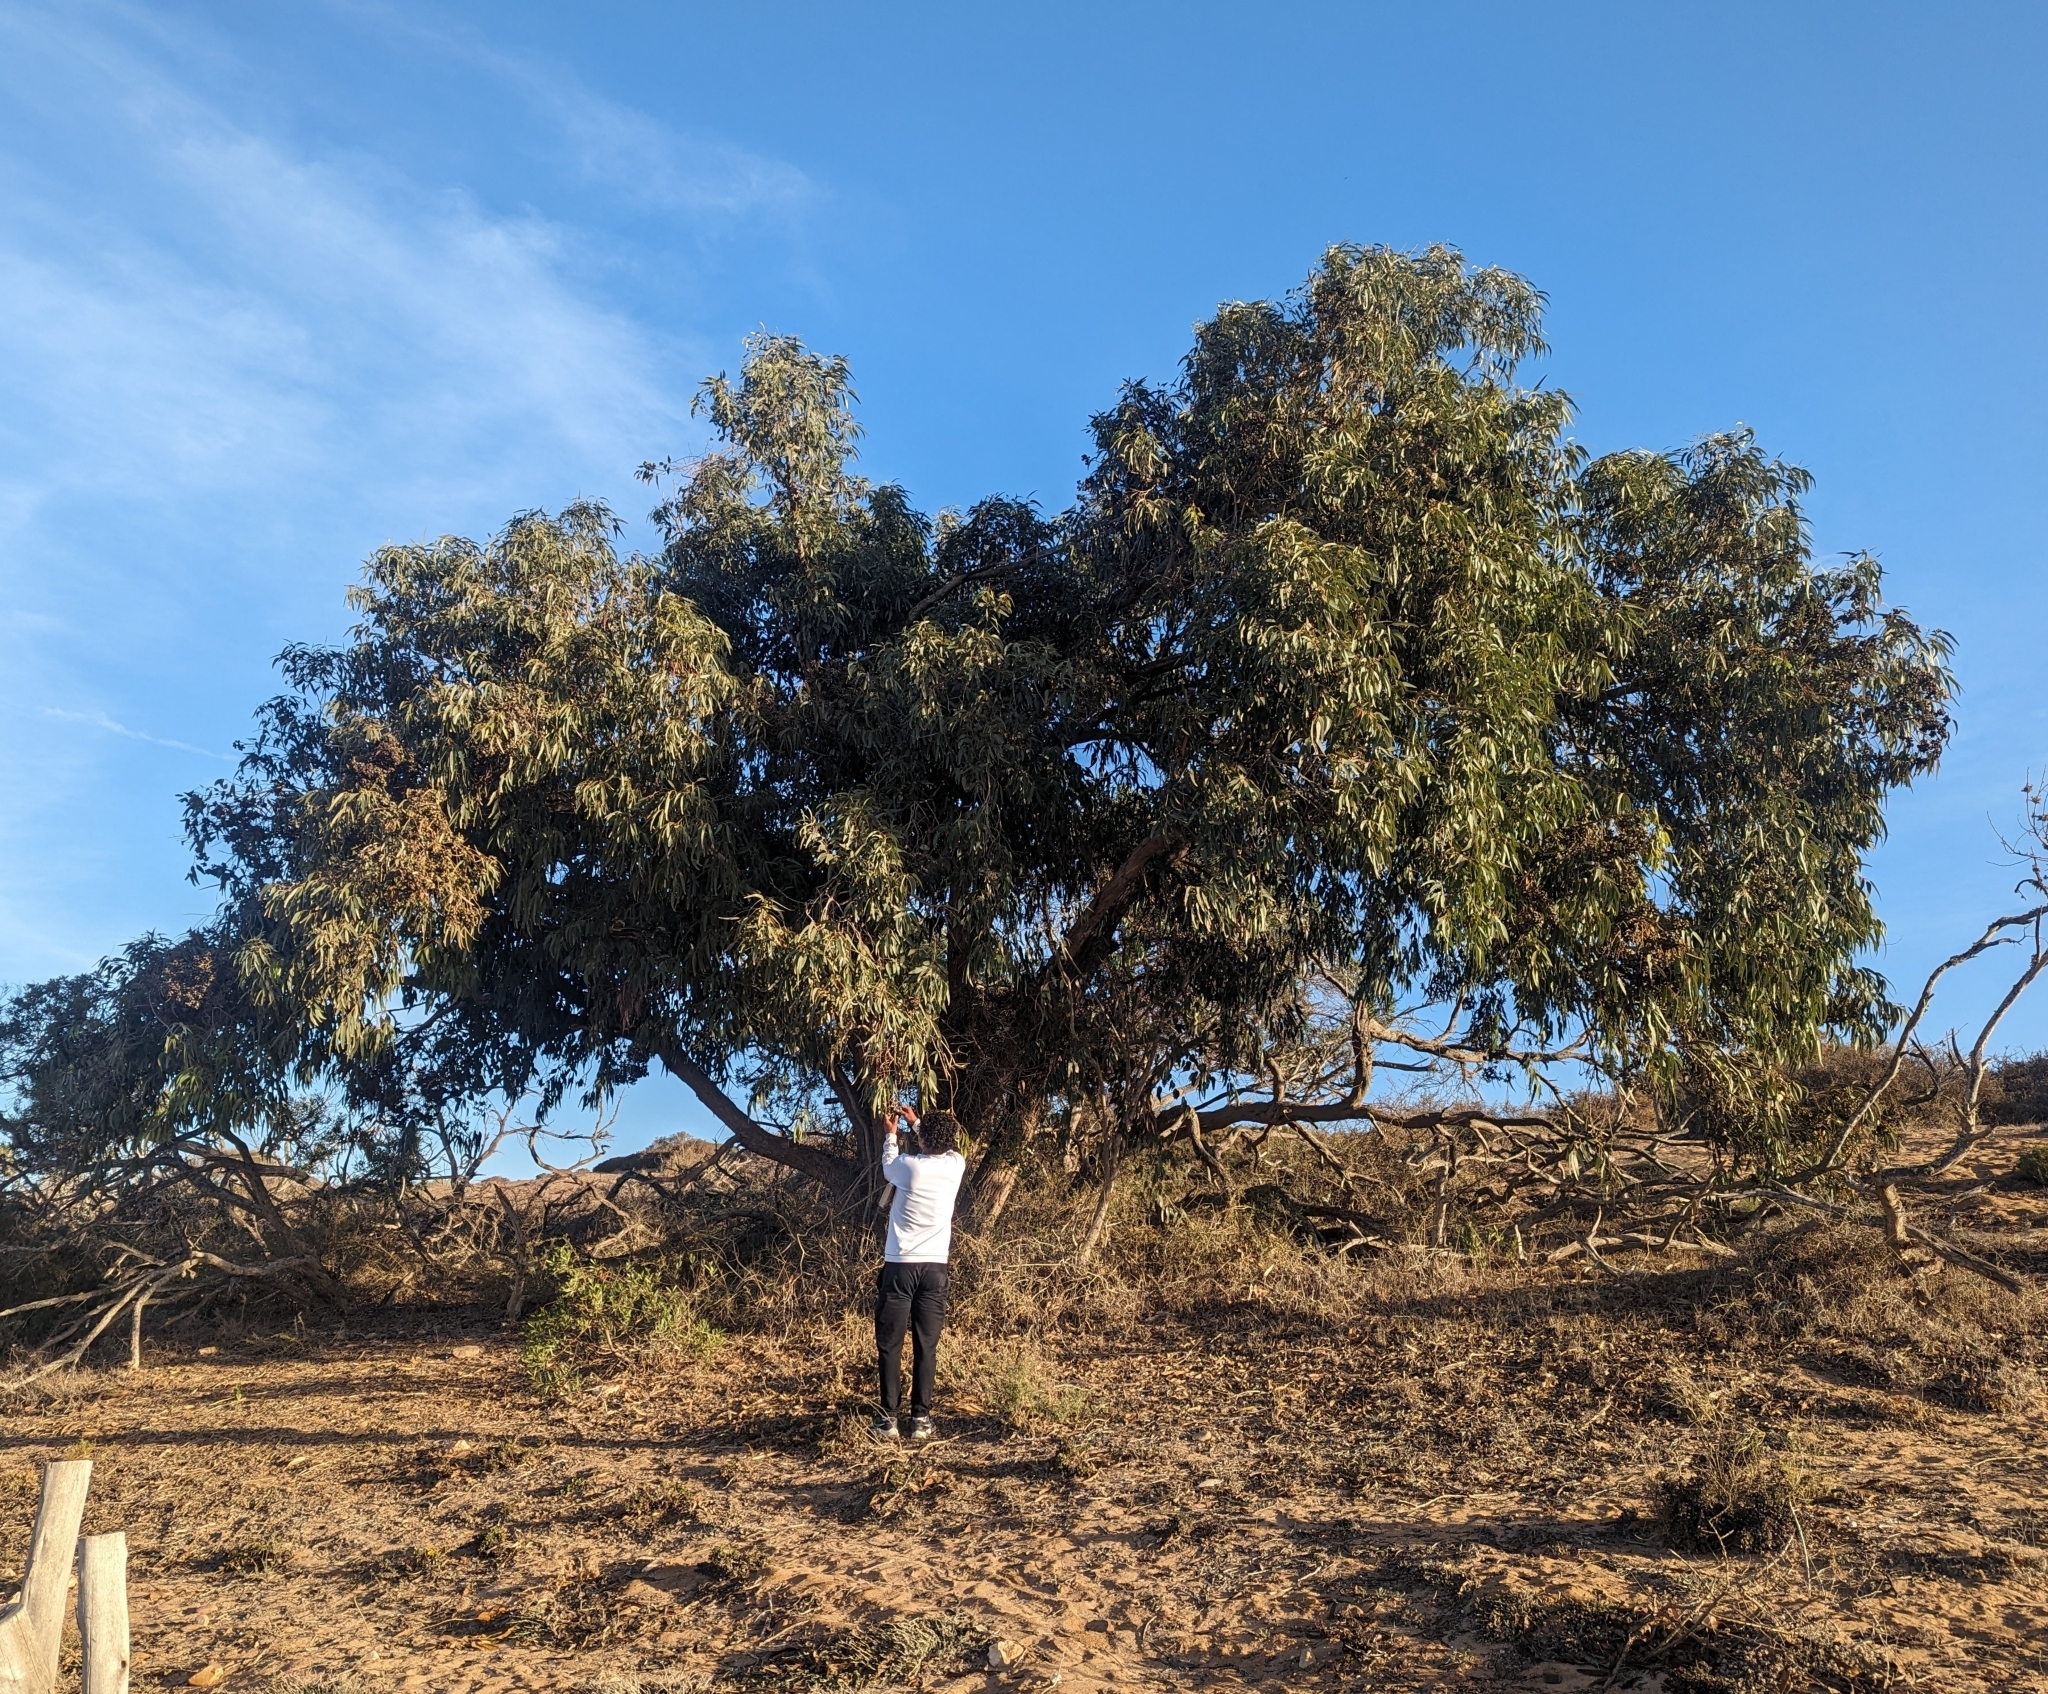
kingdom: Plantae
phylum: Tracheophyta
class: Magnoliopsida
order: Myrtales
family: Myrtaceae
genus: Eucalyptus
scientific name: Eucalyptus gomphocephala
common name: Tuart
